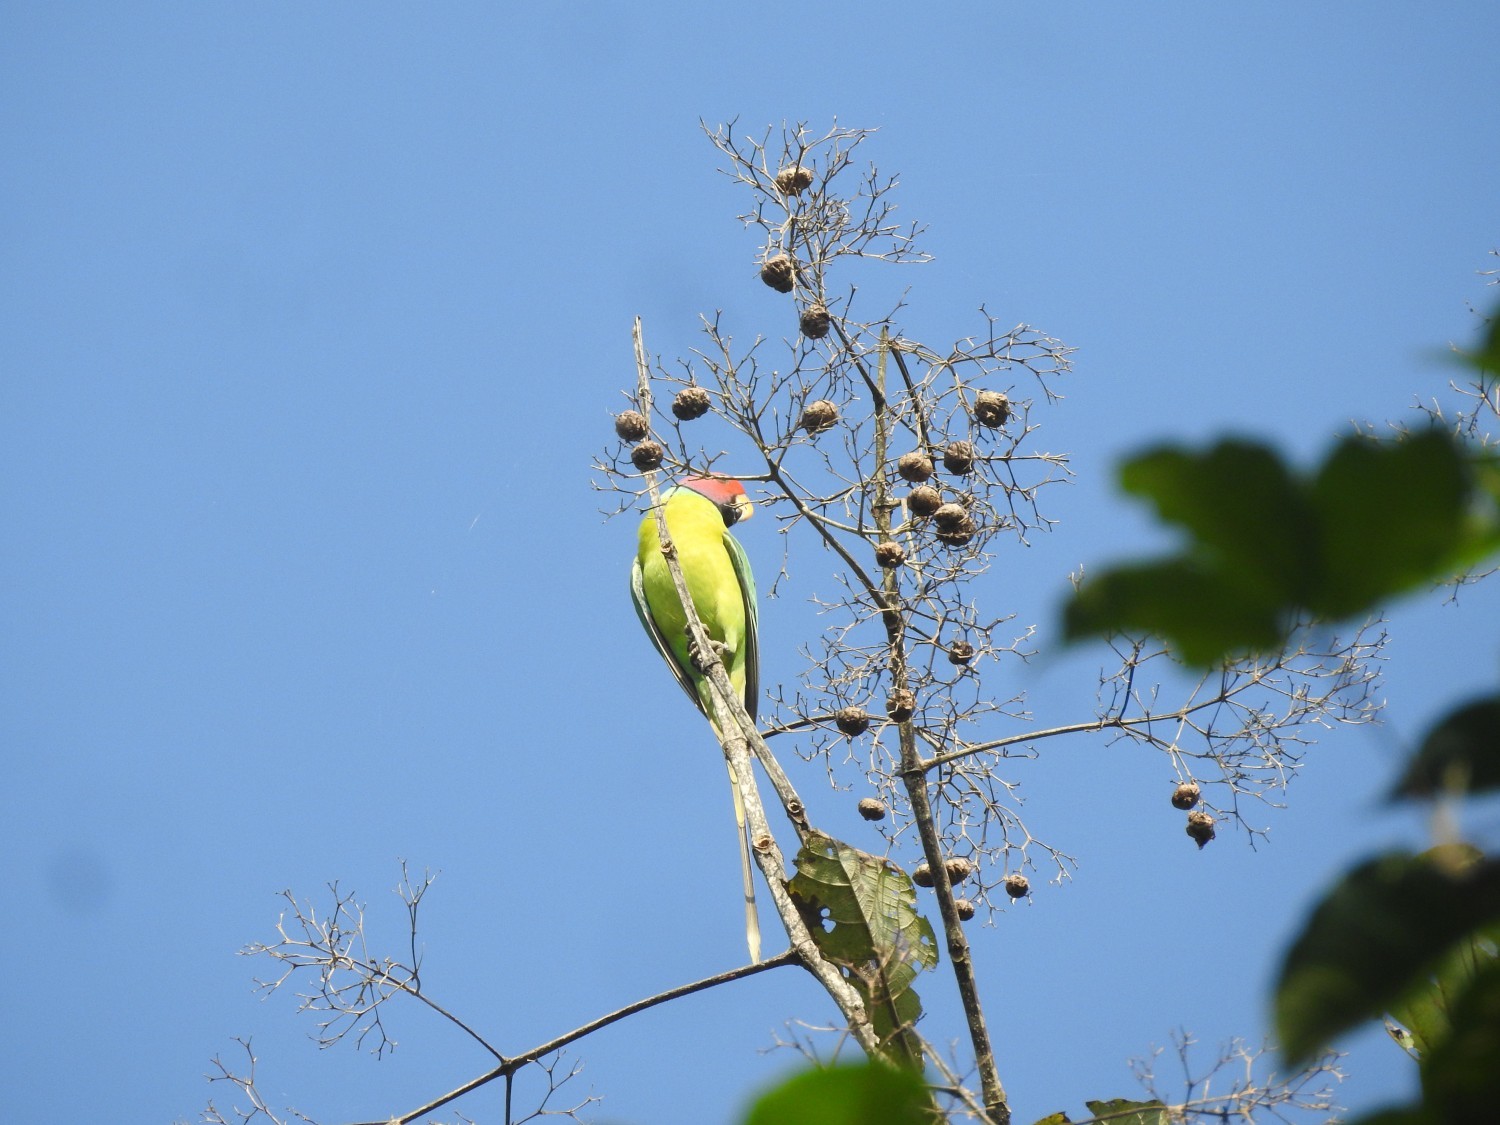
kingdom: Animalia
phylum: Chordata
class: Aves
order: Psittaciformes
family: Psittacidae
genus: Psittacula
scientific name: Psittacula cyanocephala
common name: Plum-headed parakeet
